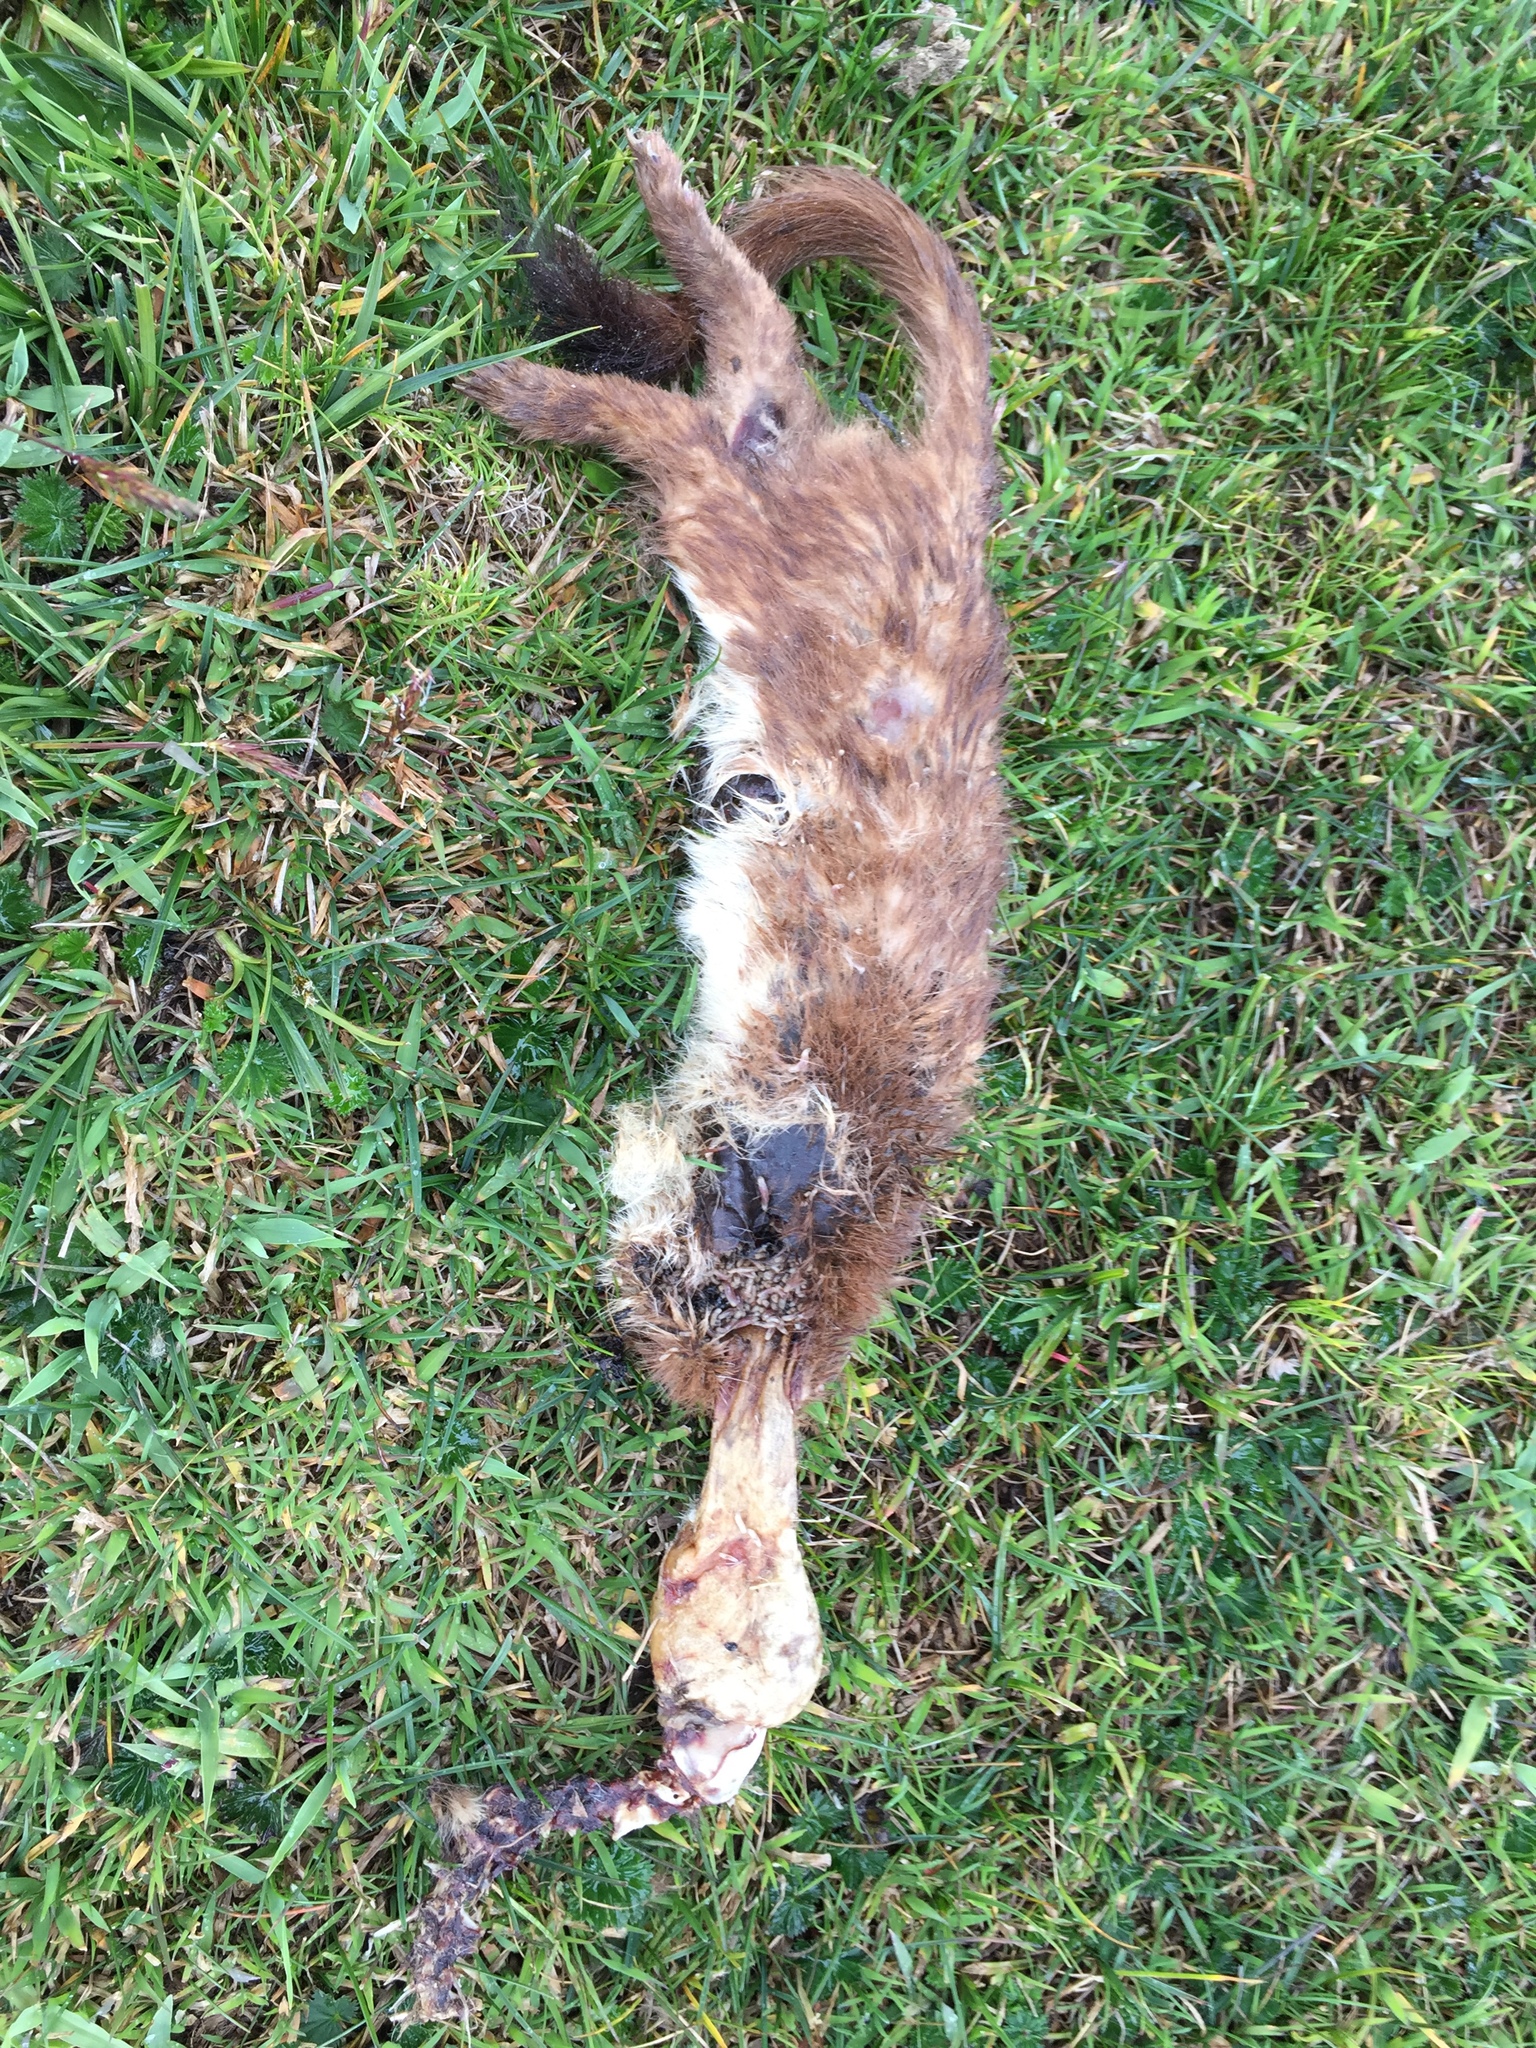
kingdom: Animalia
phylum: Chordata
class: Mammalia
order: Carnivora
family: Mustelidae
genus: Mustela
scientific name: Mustela
